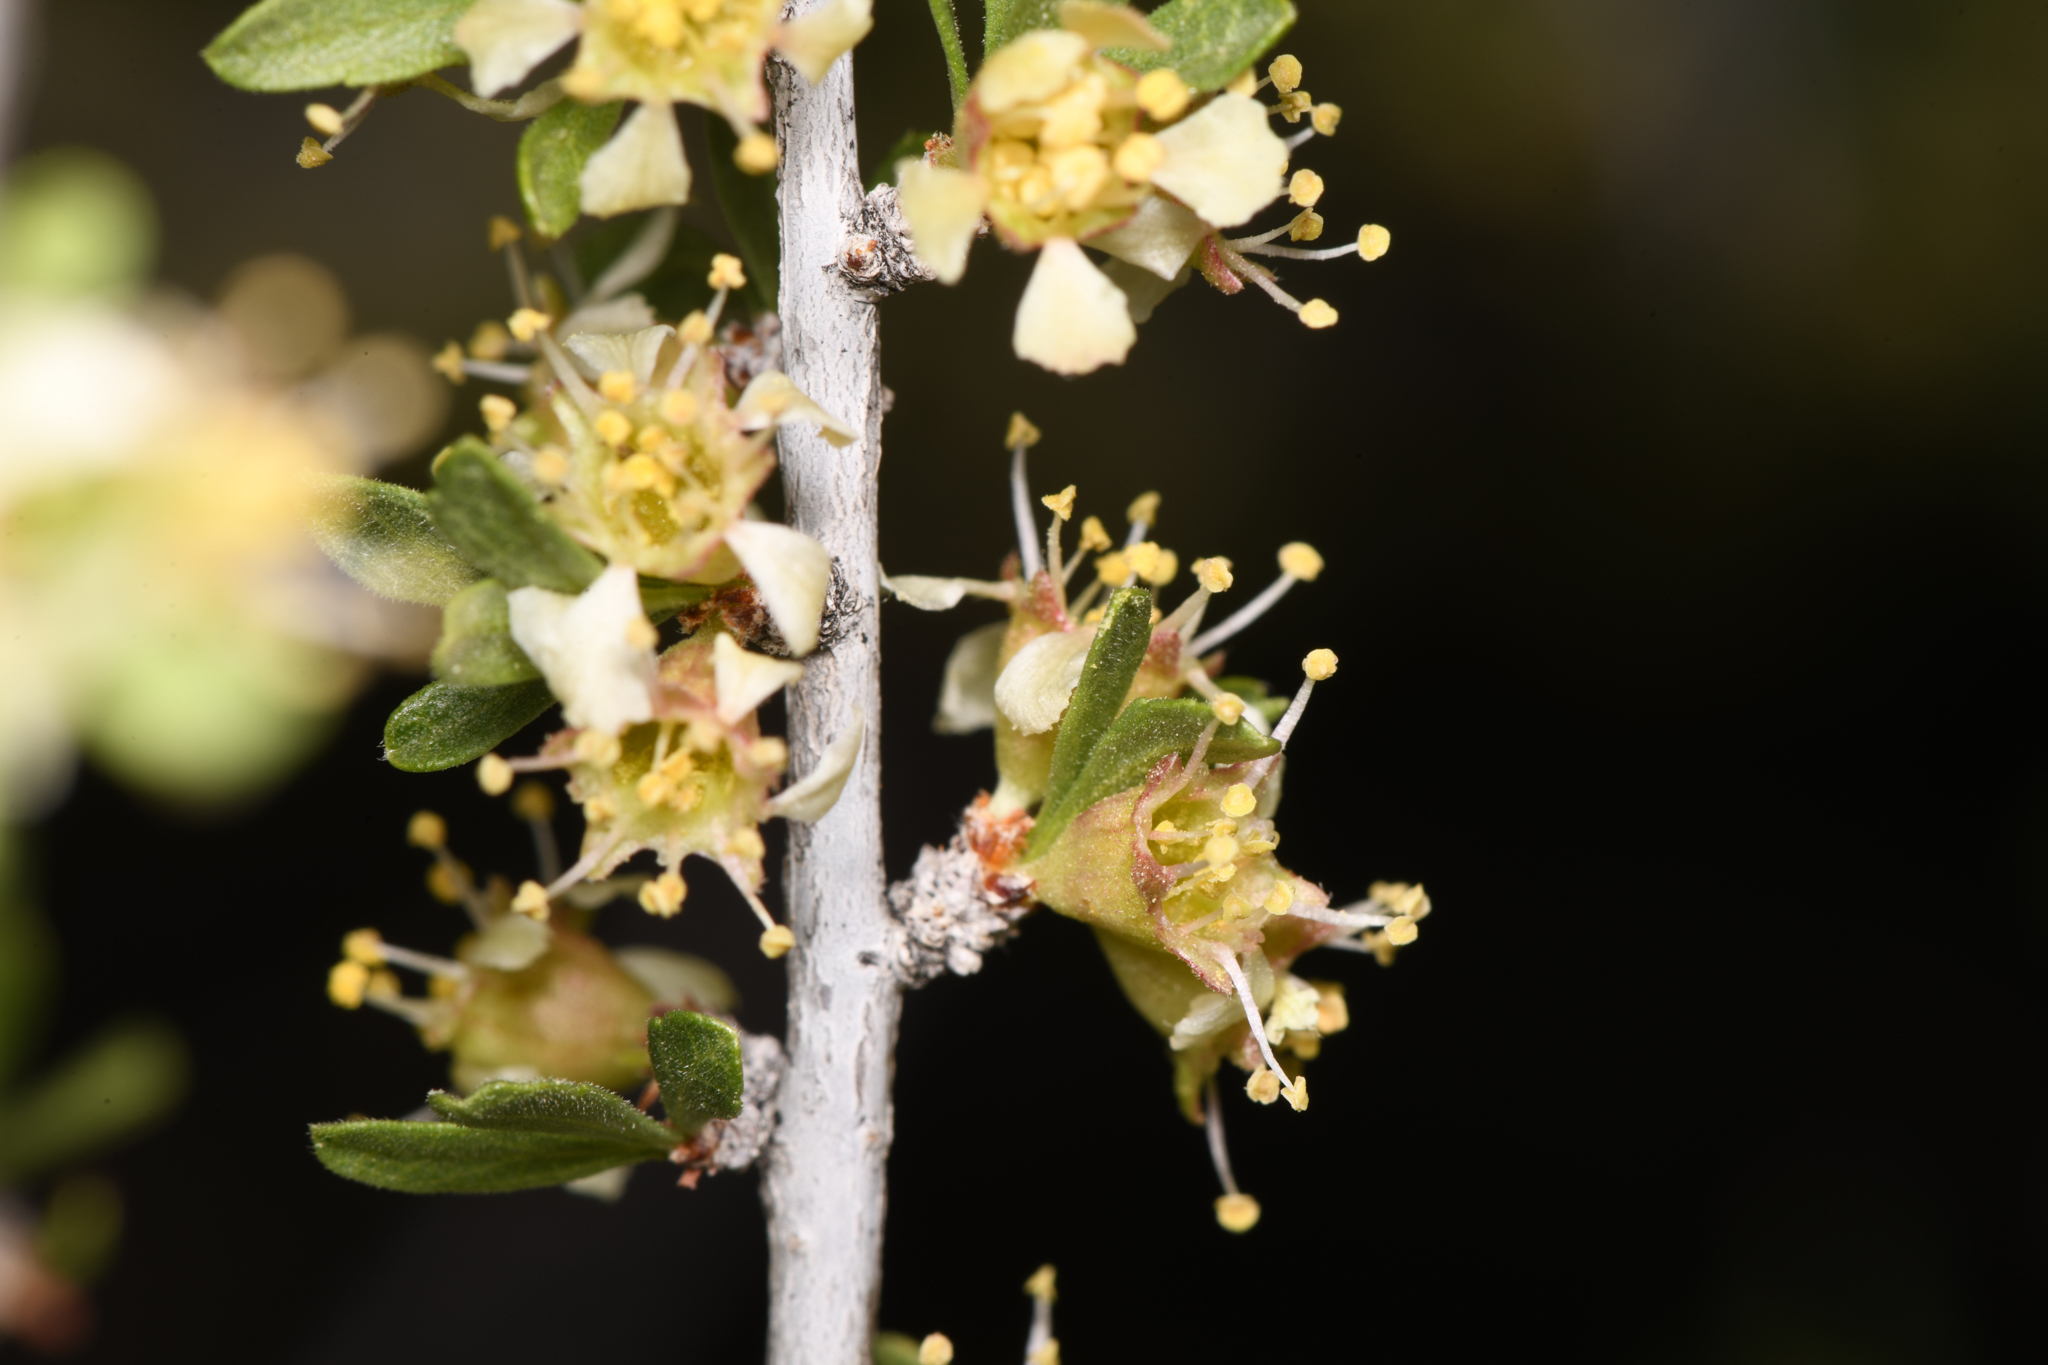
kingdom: Plantae
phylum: Tracheophyta
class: Magnoliopsida
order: Rosales
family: Rosaceae
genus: Prunus
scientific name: Prunus fasciculata
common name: Desert almond
